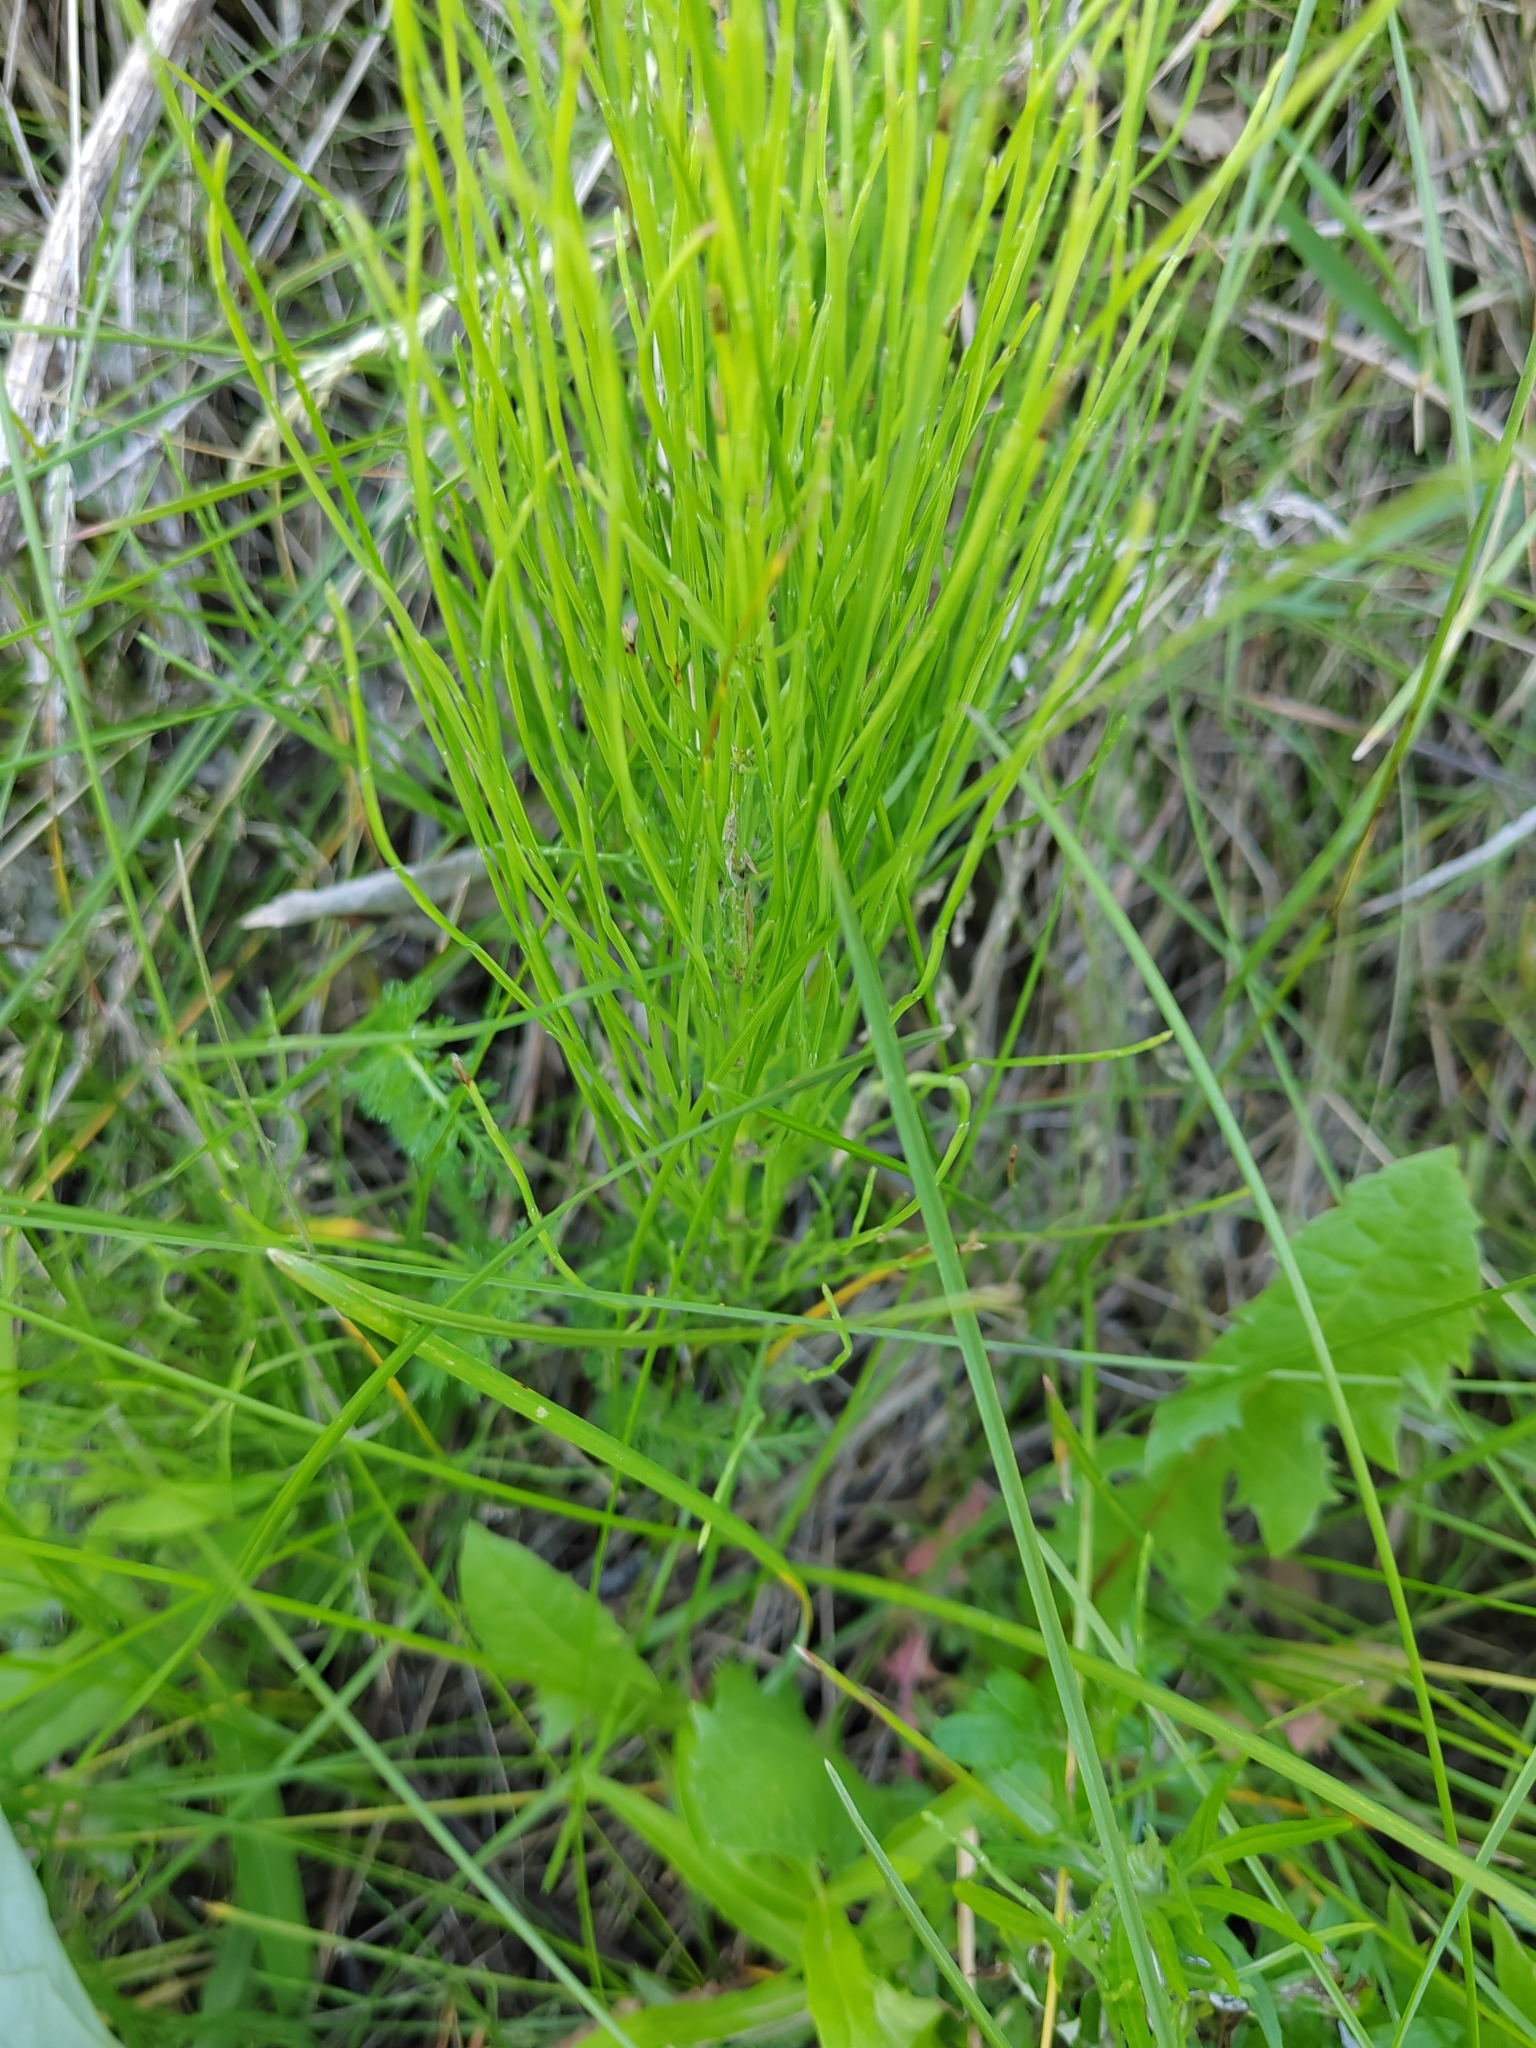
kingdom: Plantae
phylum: Tracheophyta
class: Polypodiopsida
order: Equisetales
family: Equisetaceae
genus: Equisetum
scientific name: Equisetum arvense
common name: Field horsetail
